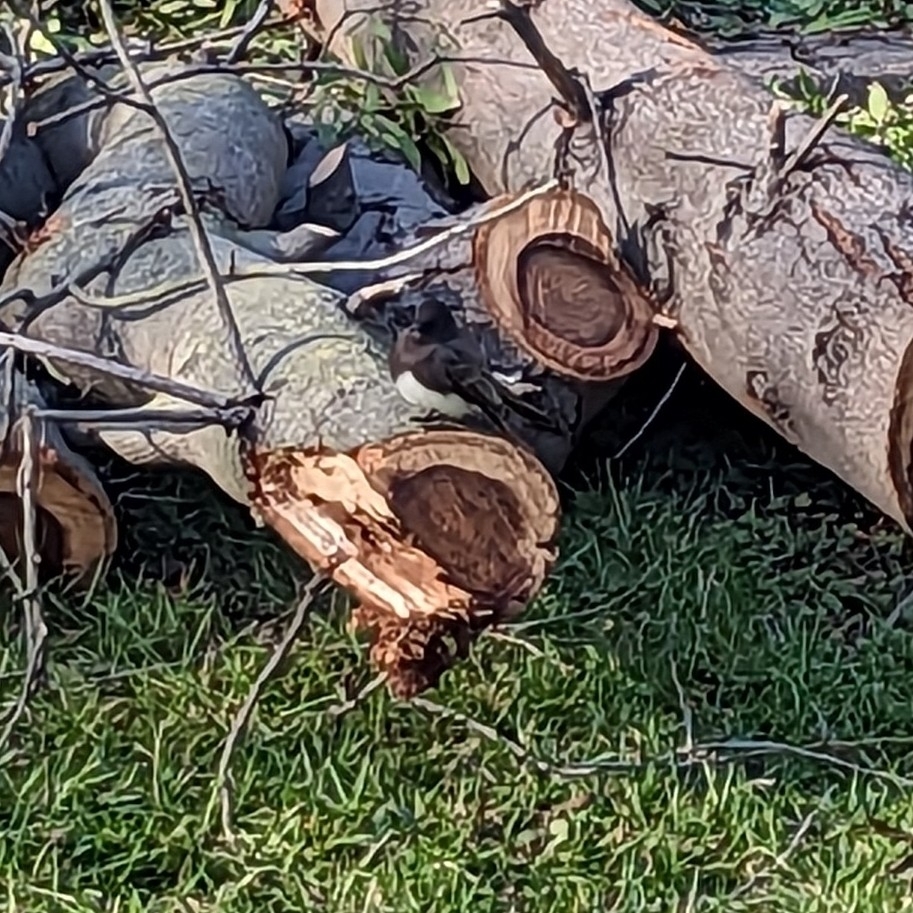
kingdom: Animalia
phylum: Chordata
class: Aves
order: Passeriformes
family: Tyrannidae
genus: Sayornis
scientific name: Sayornis nigricans
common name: Black phoebe
